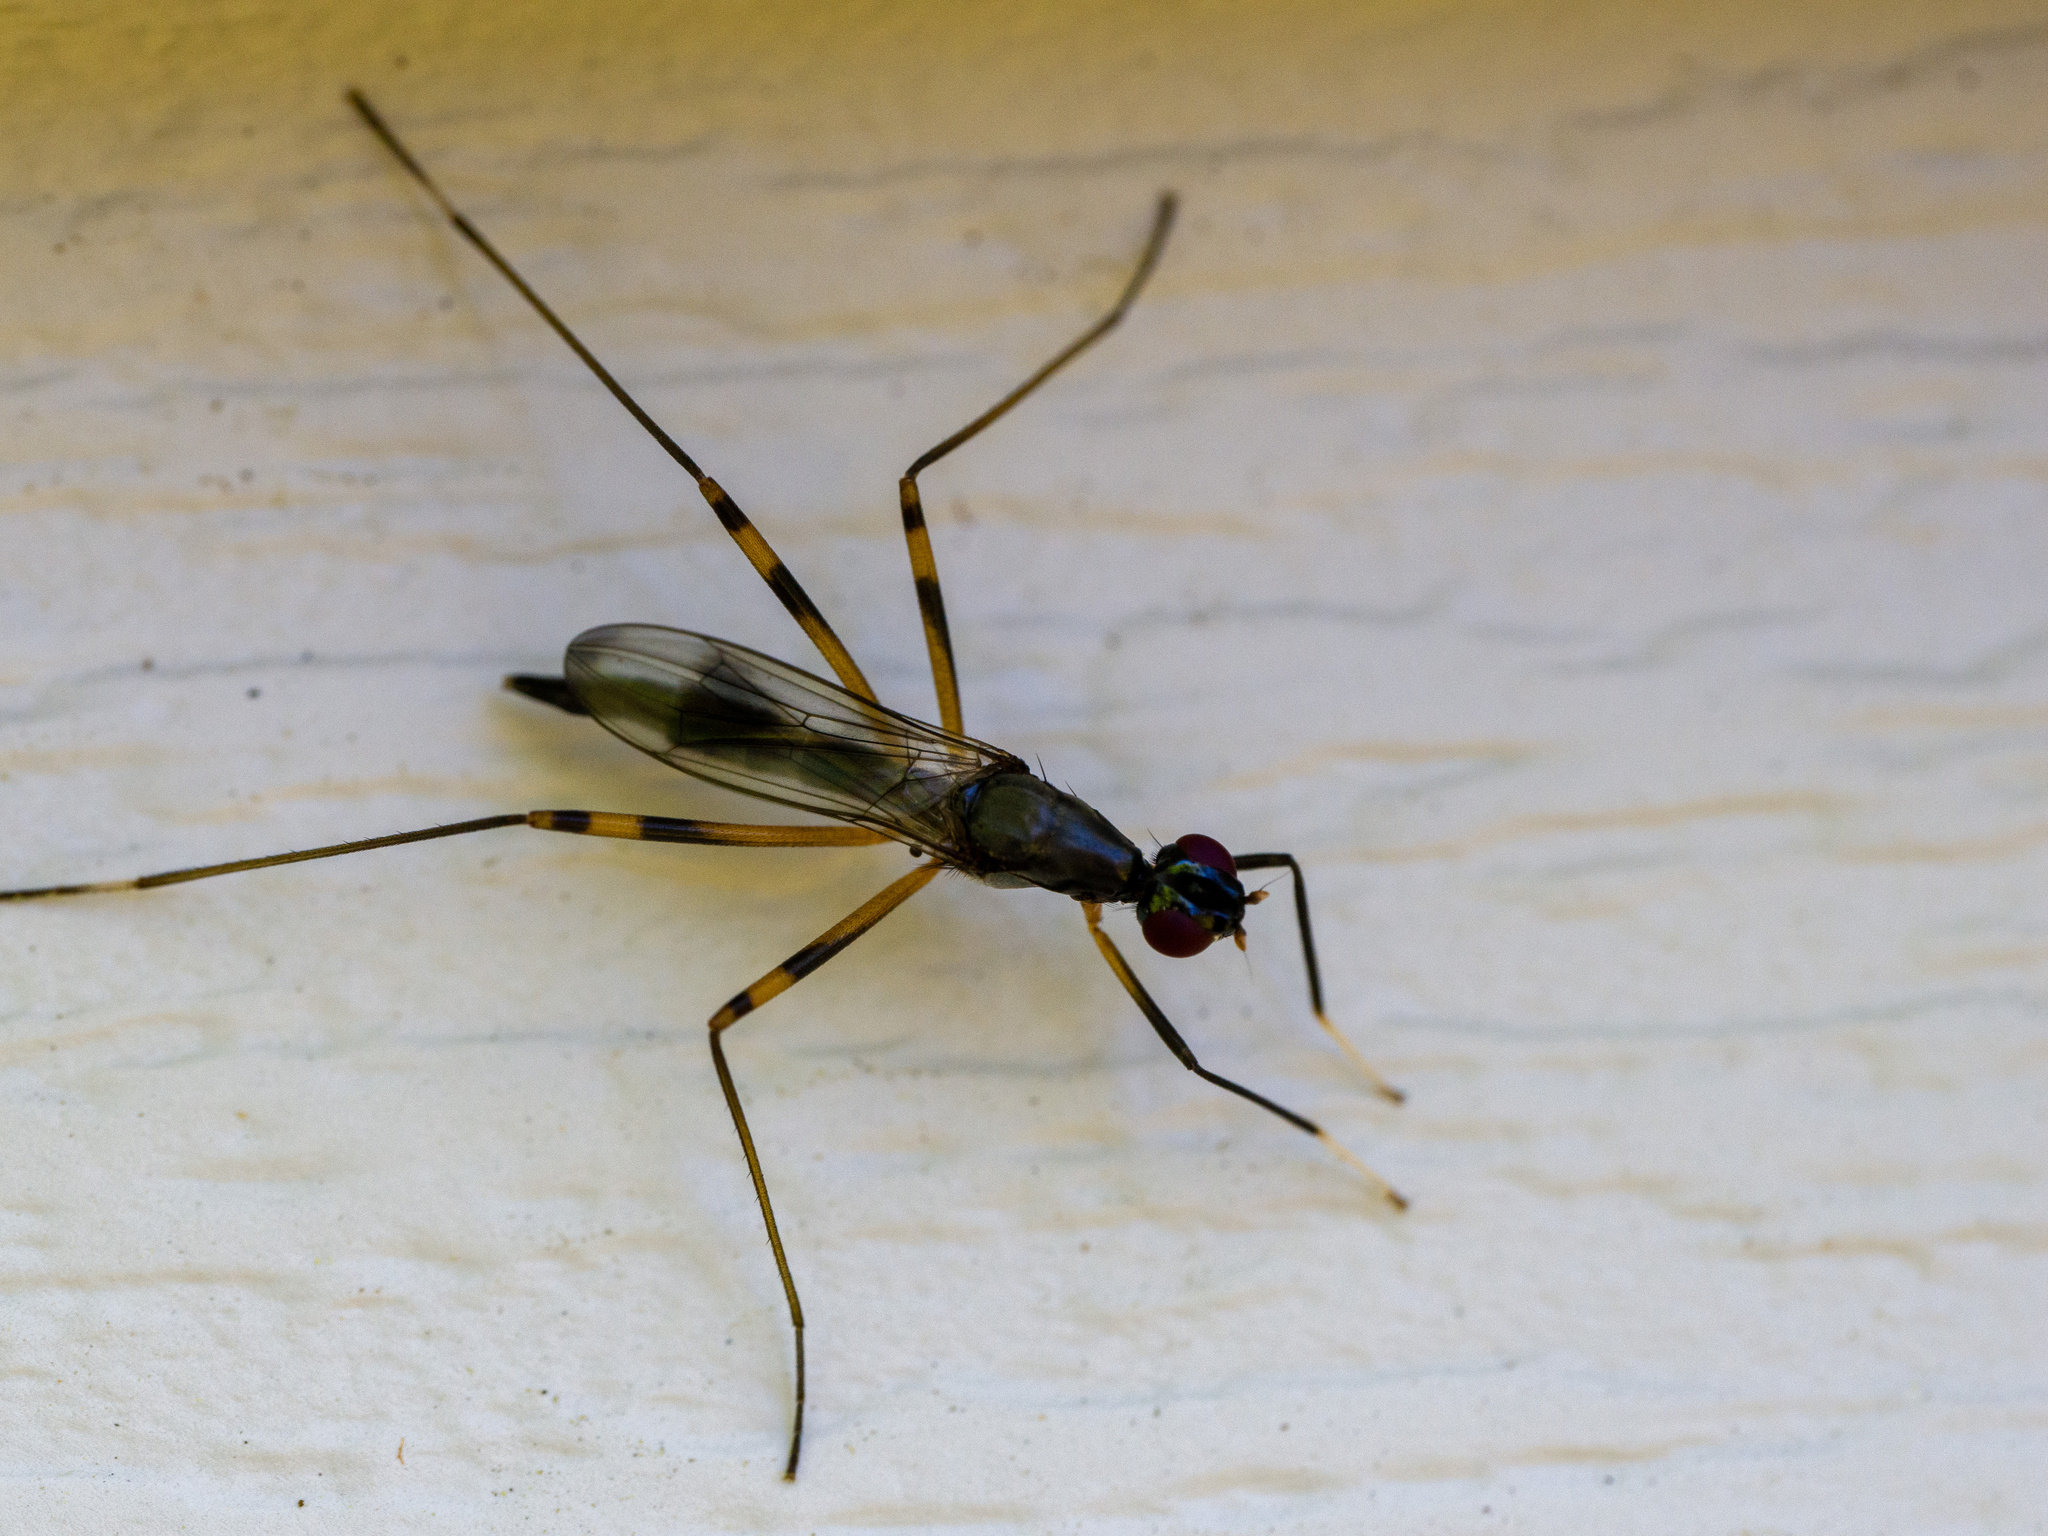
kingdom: Animalia
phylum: Arthropoda
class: Insecta
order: Diptera
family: Micropezidae
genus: Rainieria
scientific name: Rainieria antennaepes
